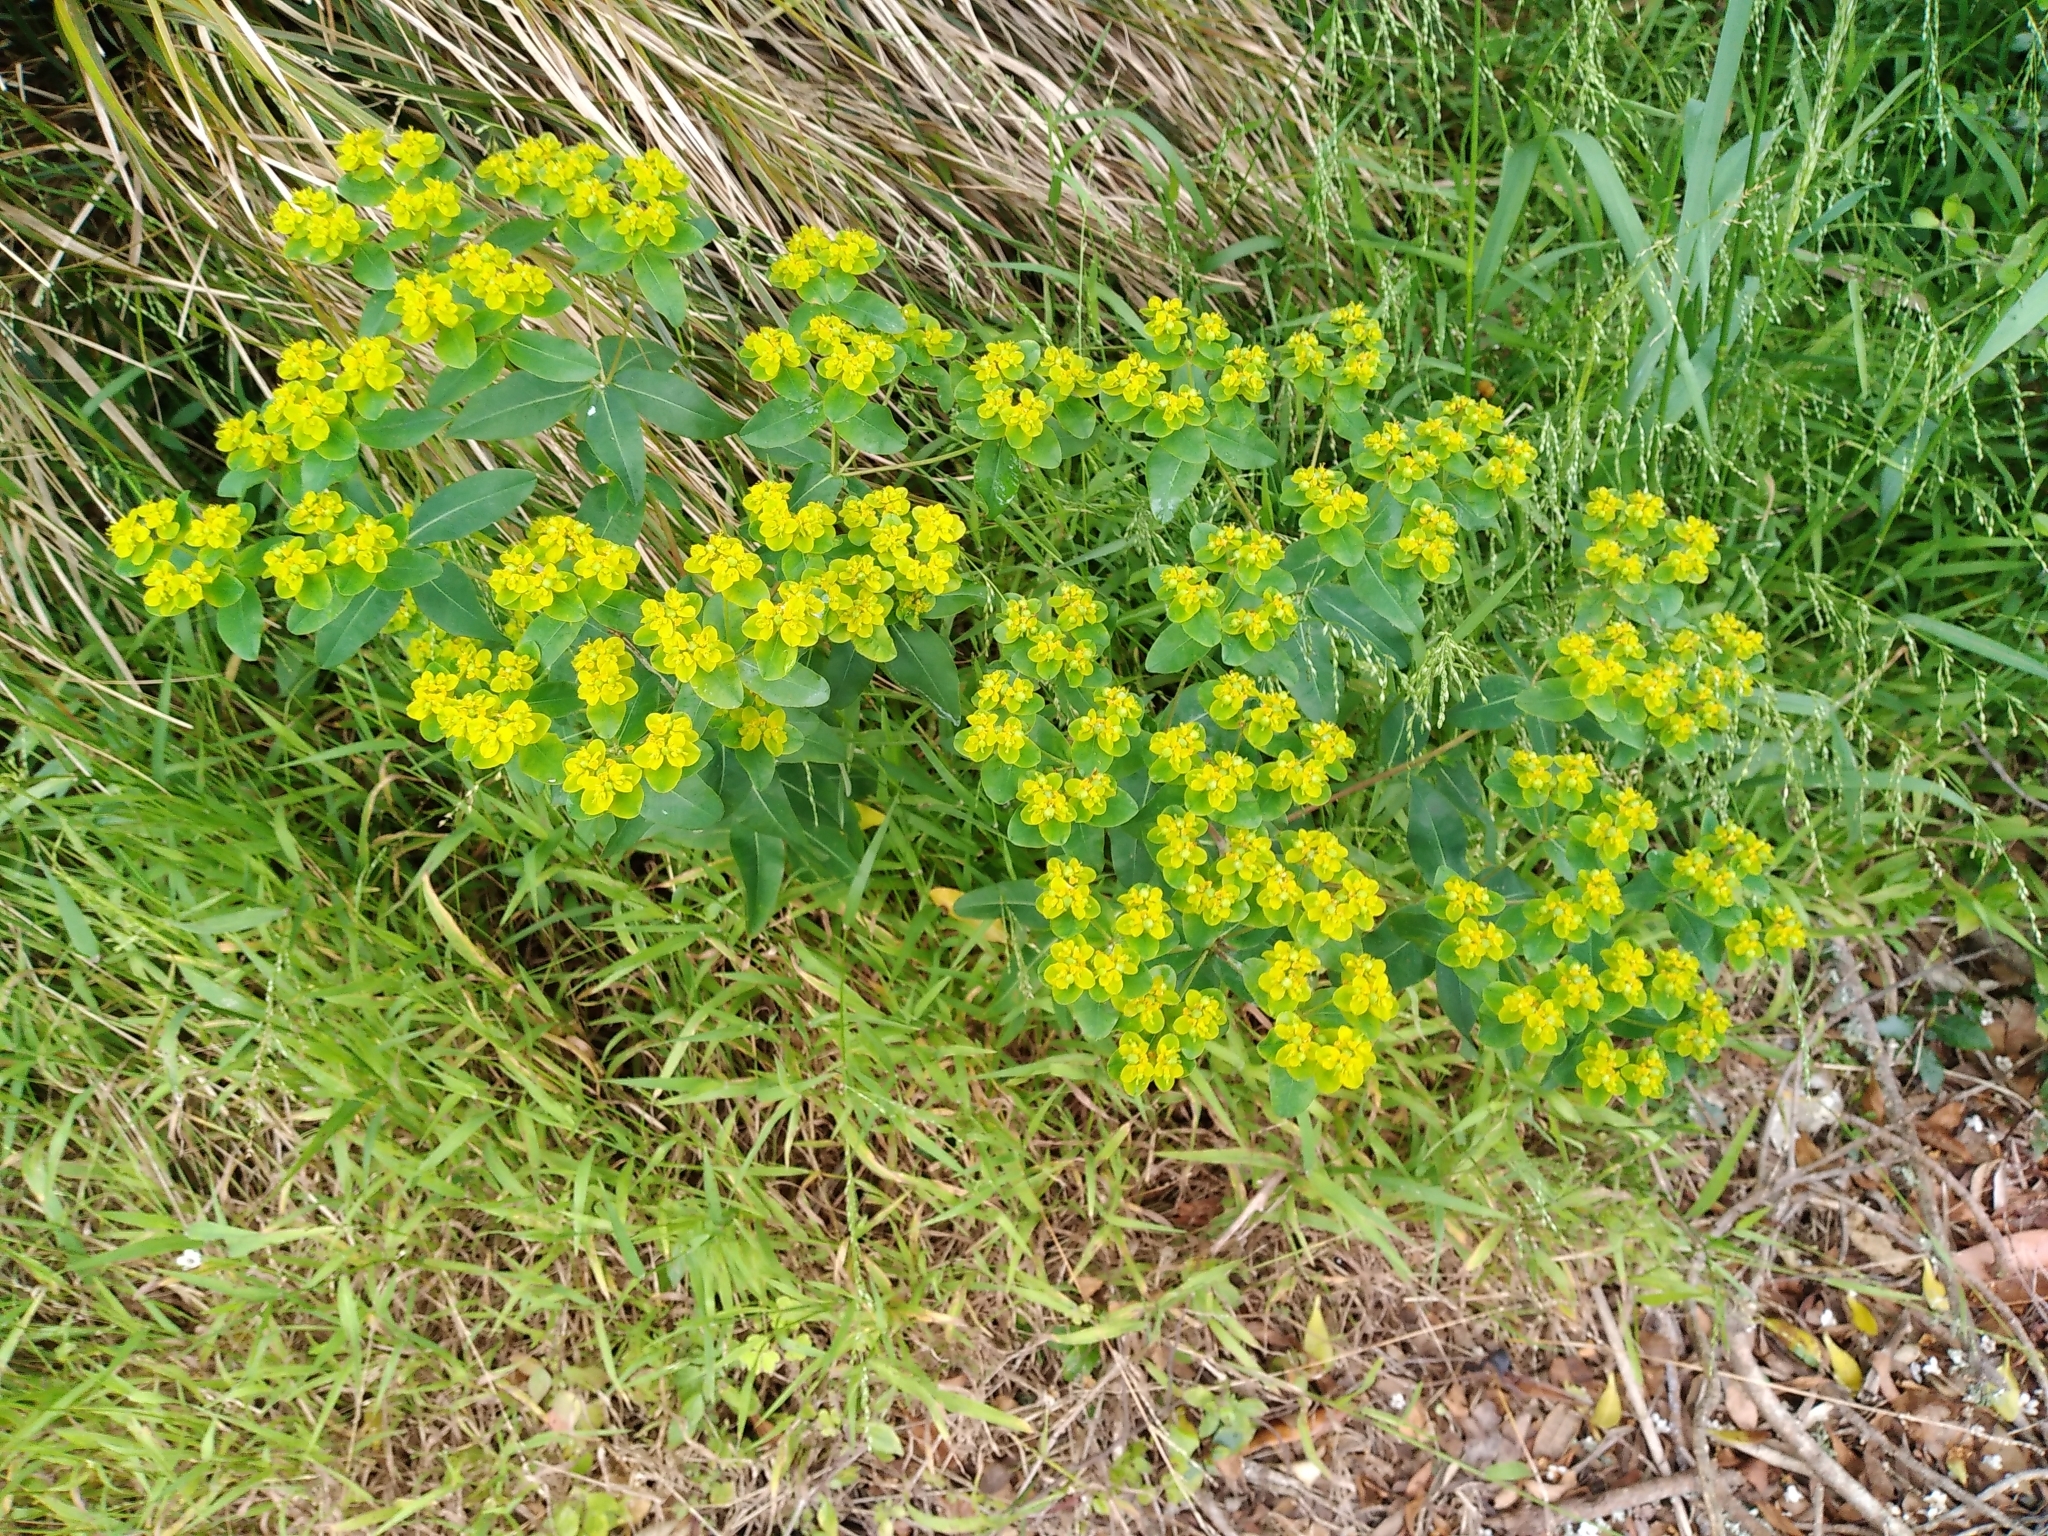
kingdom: Plantae
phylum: Tracheophyta
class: Magnoliopsida
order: Malpighiales
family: Euphorbiaceae
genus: Euphorbia
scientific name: Euphorbia oblongata
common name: Balkan spurge
